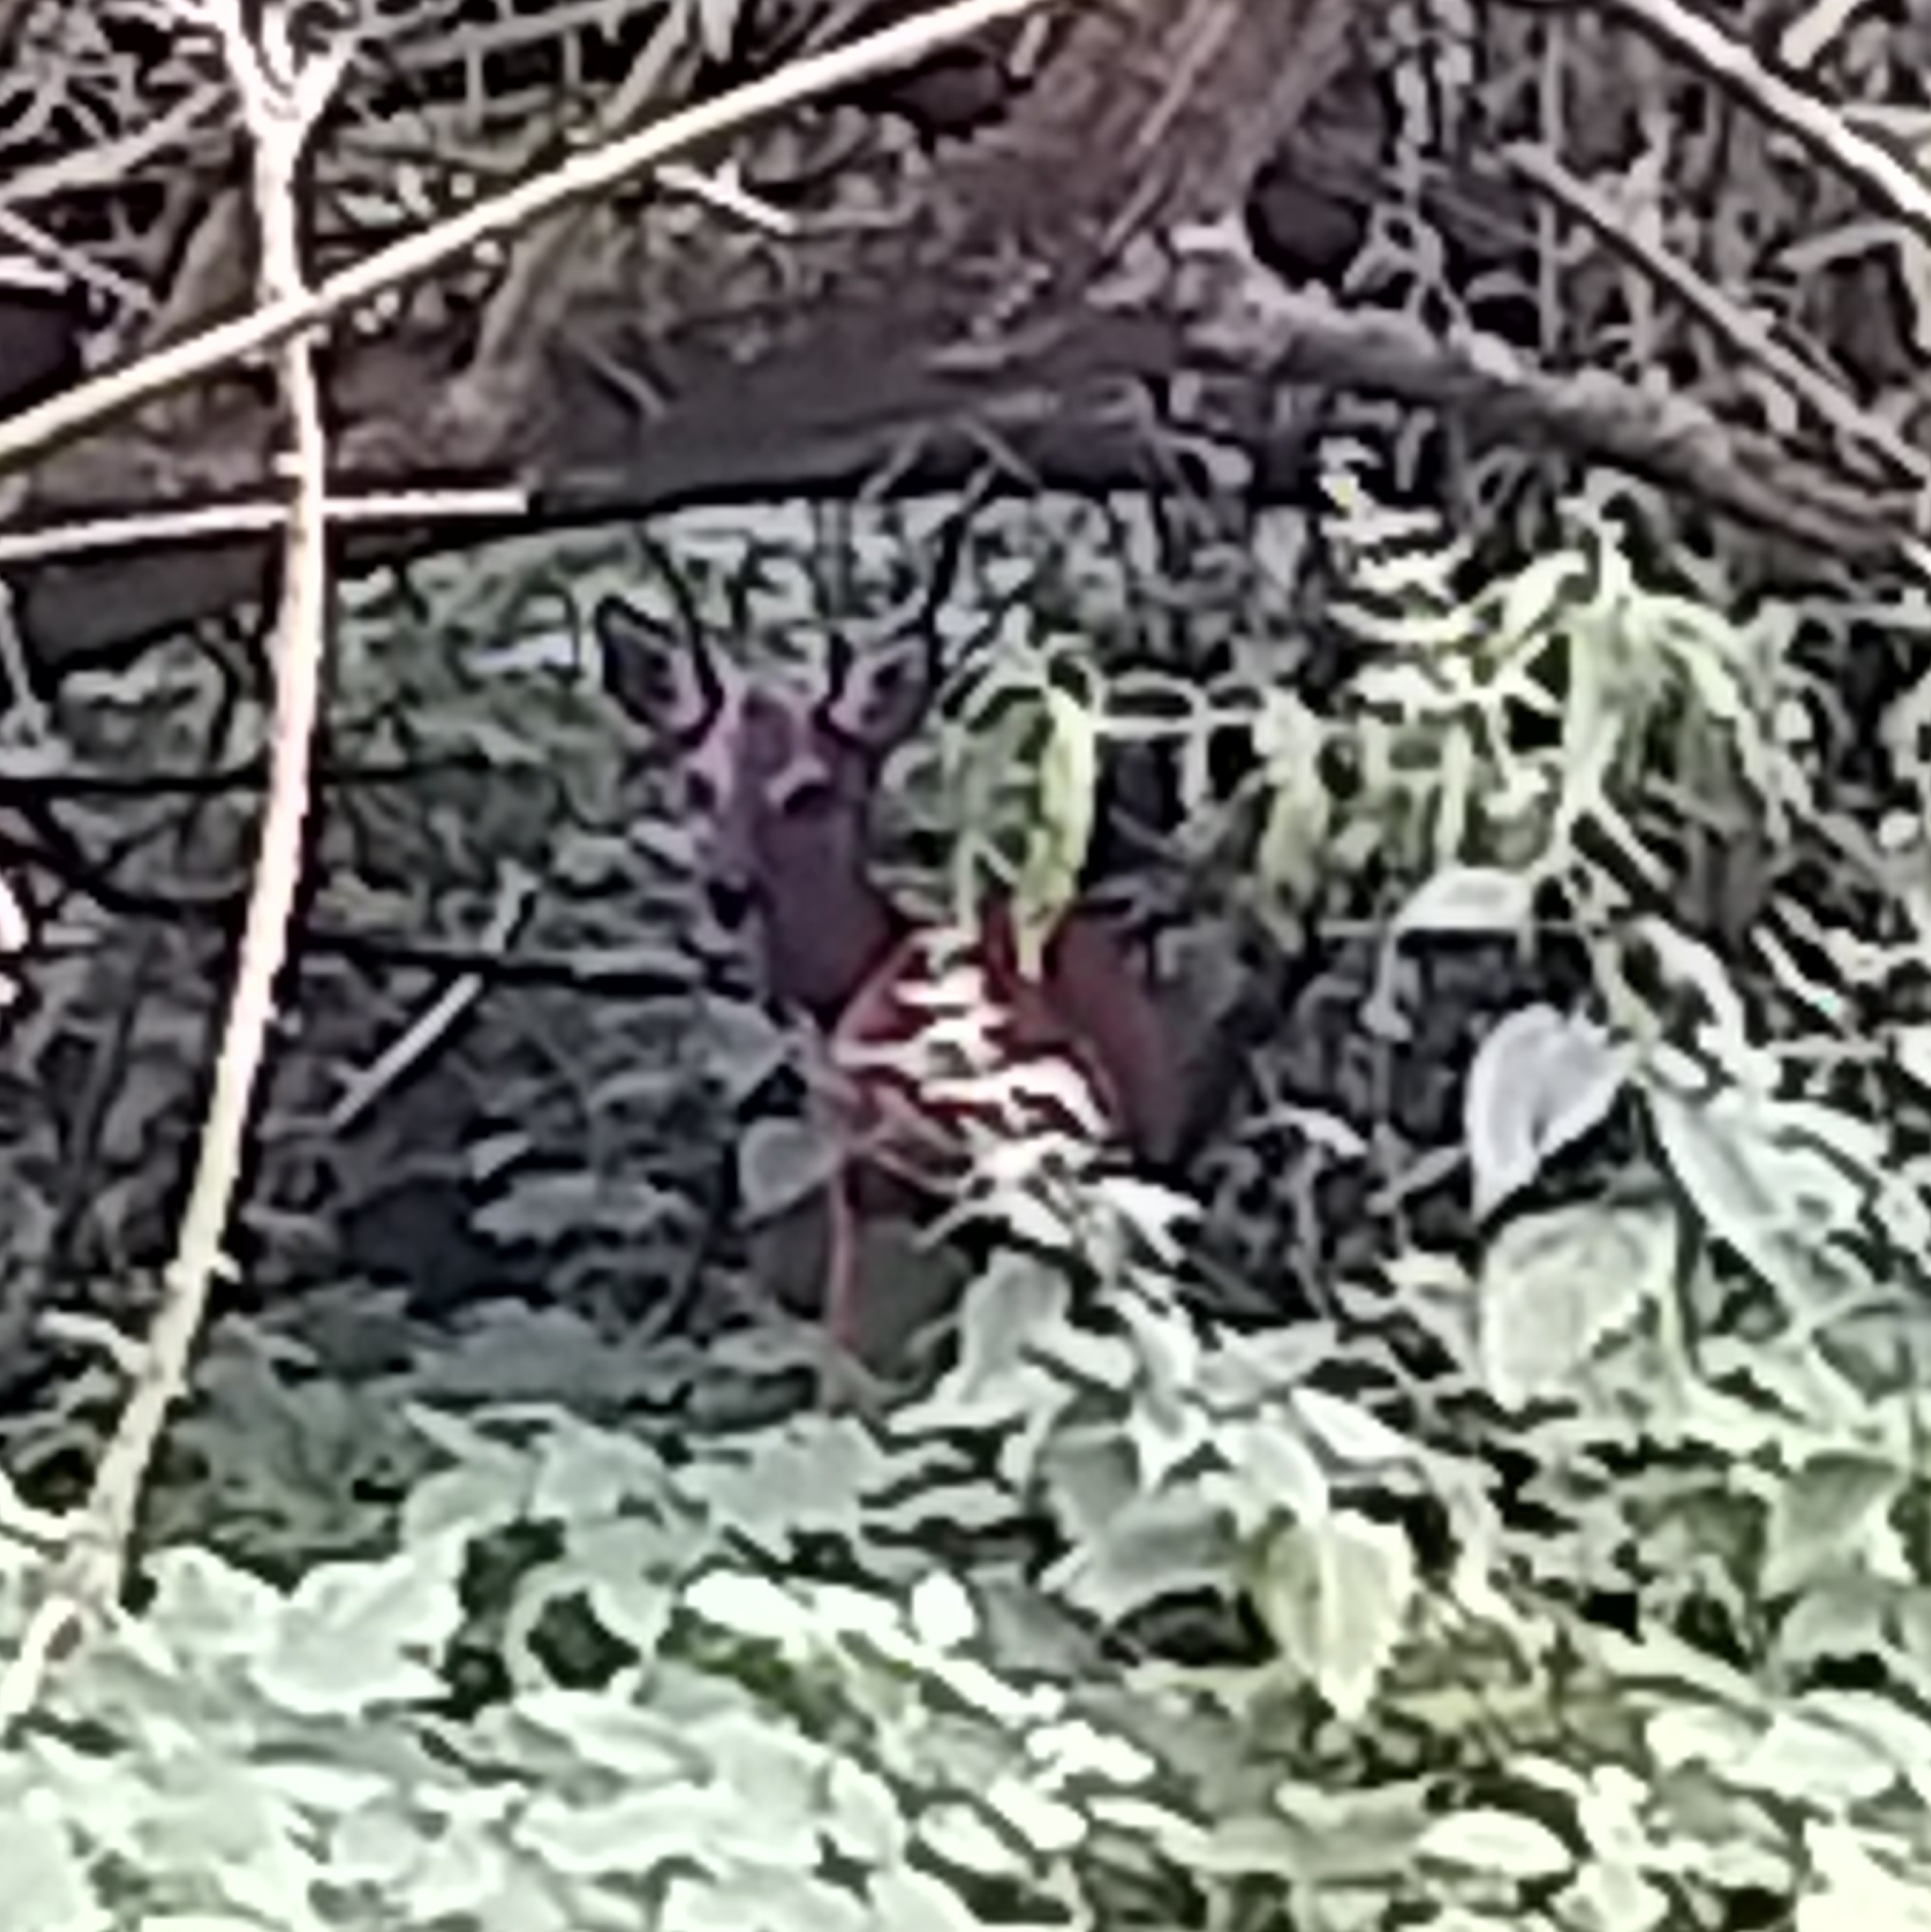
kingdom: Animalia
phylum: Chordata
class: Mammalia
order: Artiodactyla
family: Cervidae
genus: Capreolus
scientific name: Capreolus capreolus
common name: Western roe deer
